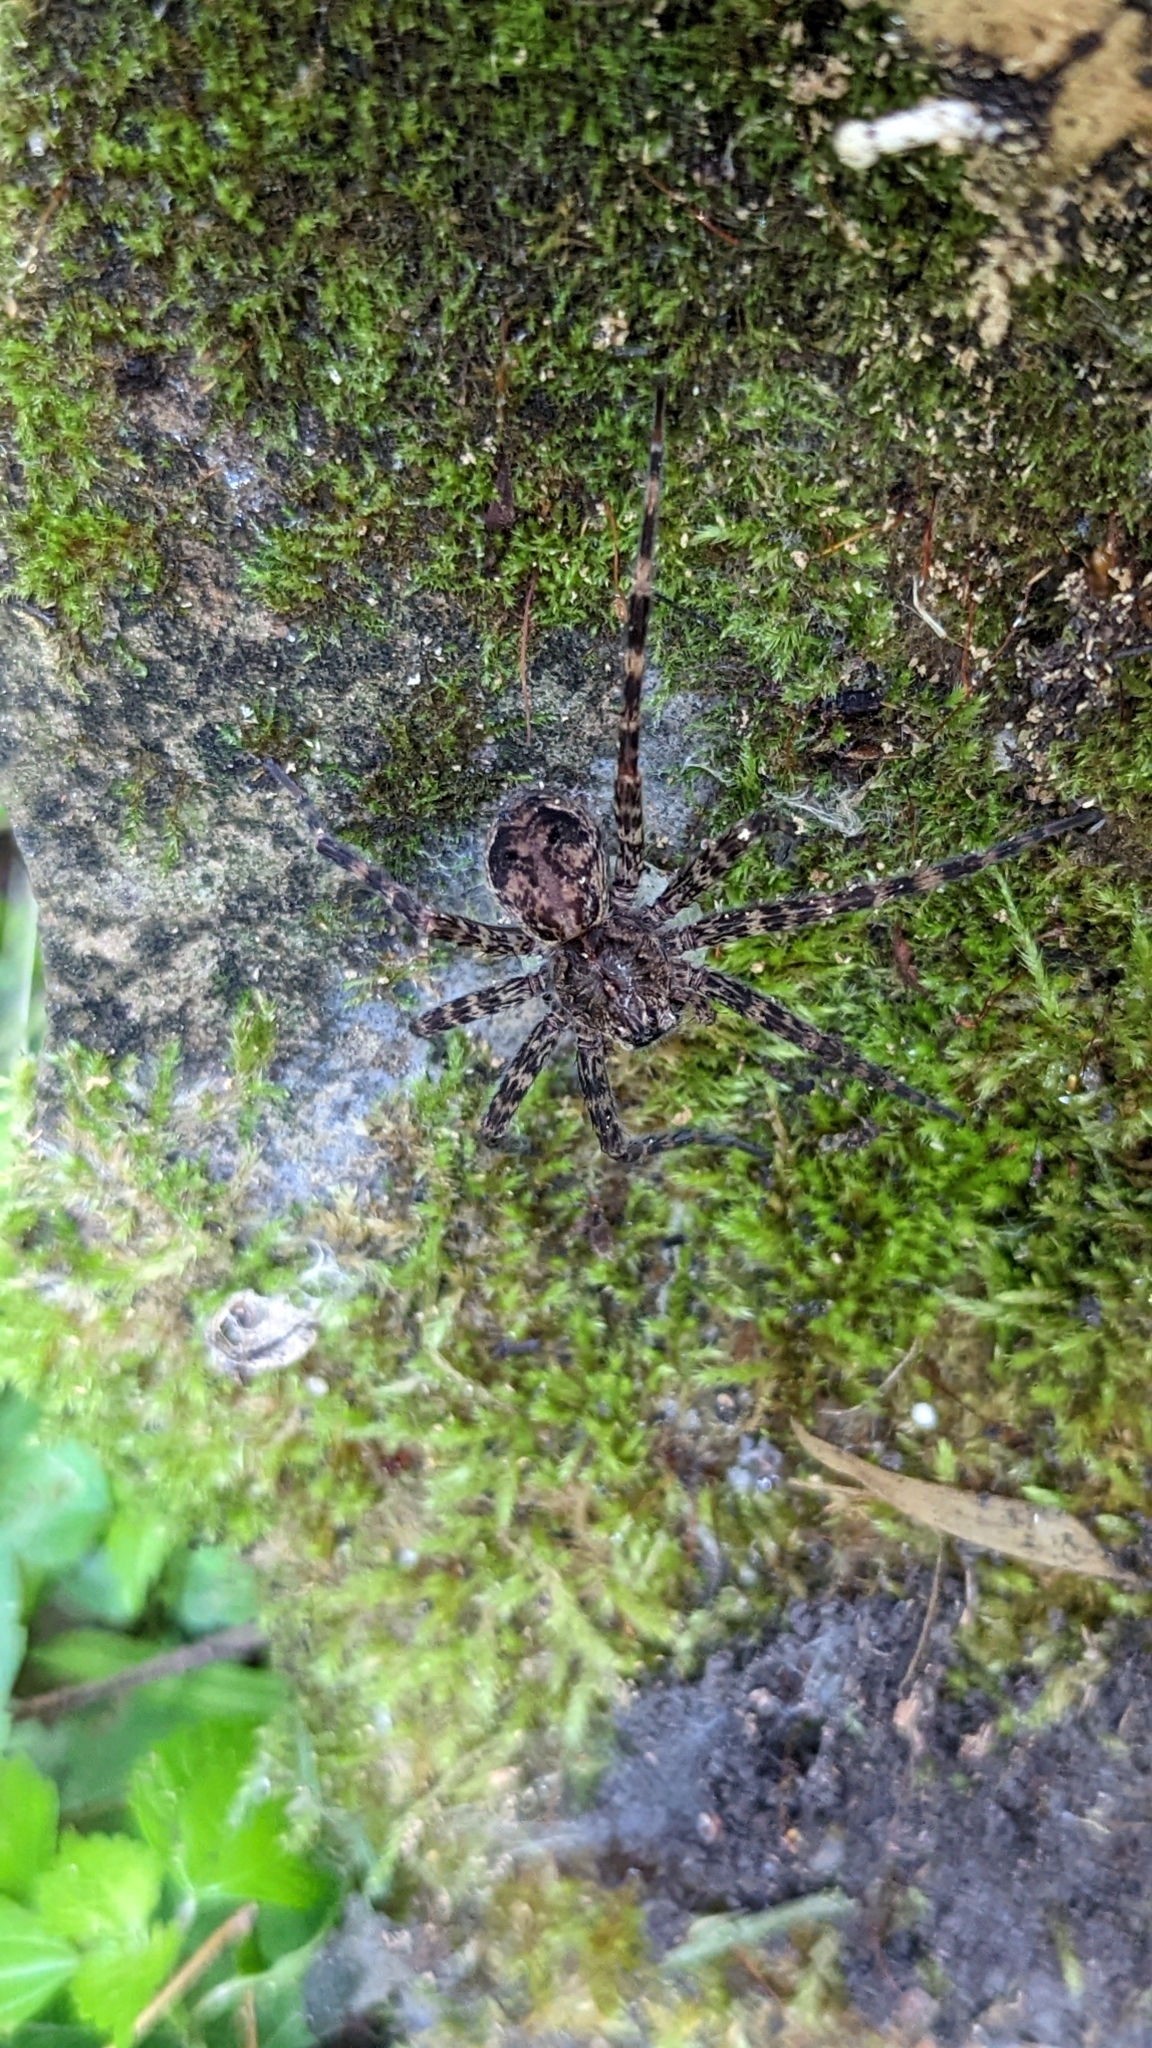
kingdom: Animalia
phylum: Arthropoda
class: Arachnida
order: Araneae
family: Pisauridae
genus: Dolomedes
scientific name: Dolomedes tenebrosus
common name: Dark fishing spider
